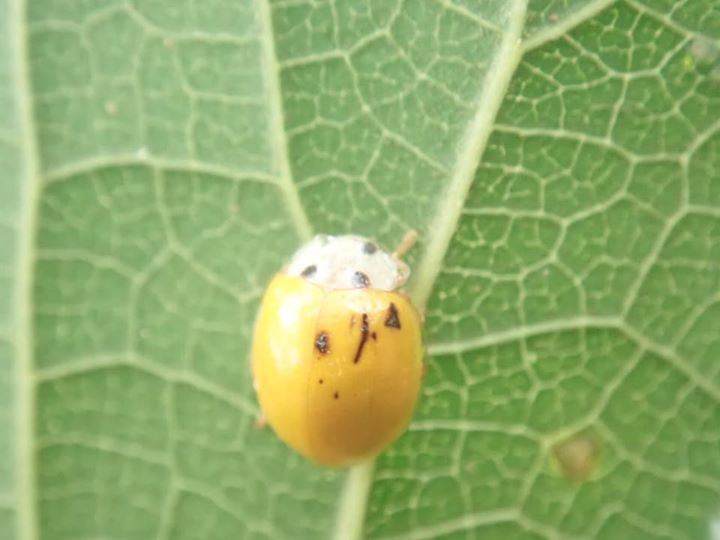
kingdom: Animalia
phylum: Arthropoda
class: Insecta
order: Coleoptera
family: Coccinellidae
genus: Illeis
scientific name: Illeis koebelei
